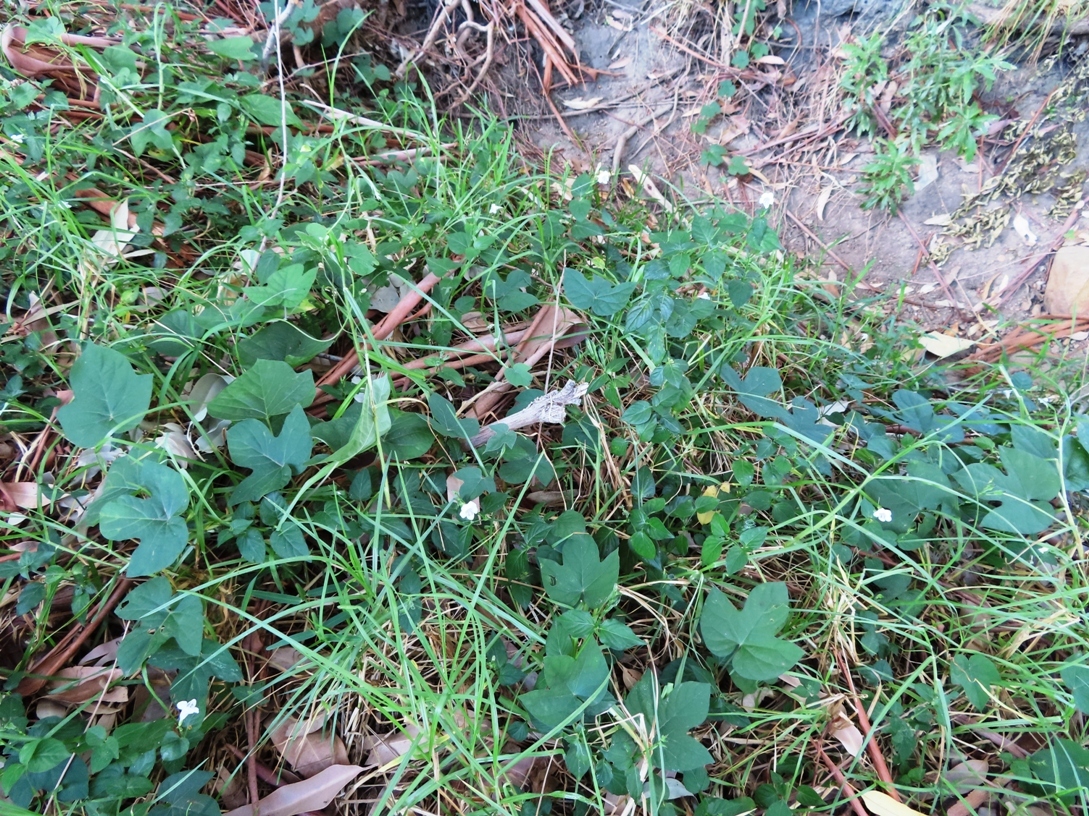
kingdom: Plantae
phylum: Tracheophyta
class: Magnoliopsida
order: Lamiales
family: Acanthaceae
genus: Asystasia
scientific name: Asystasia intrusa
